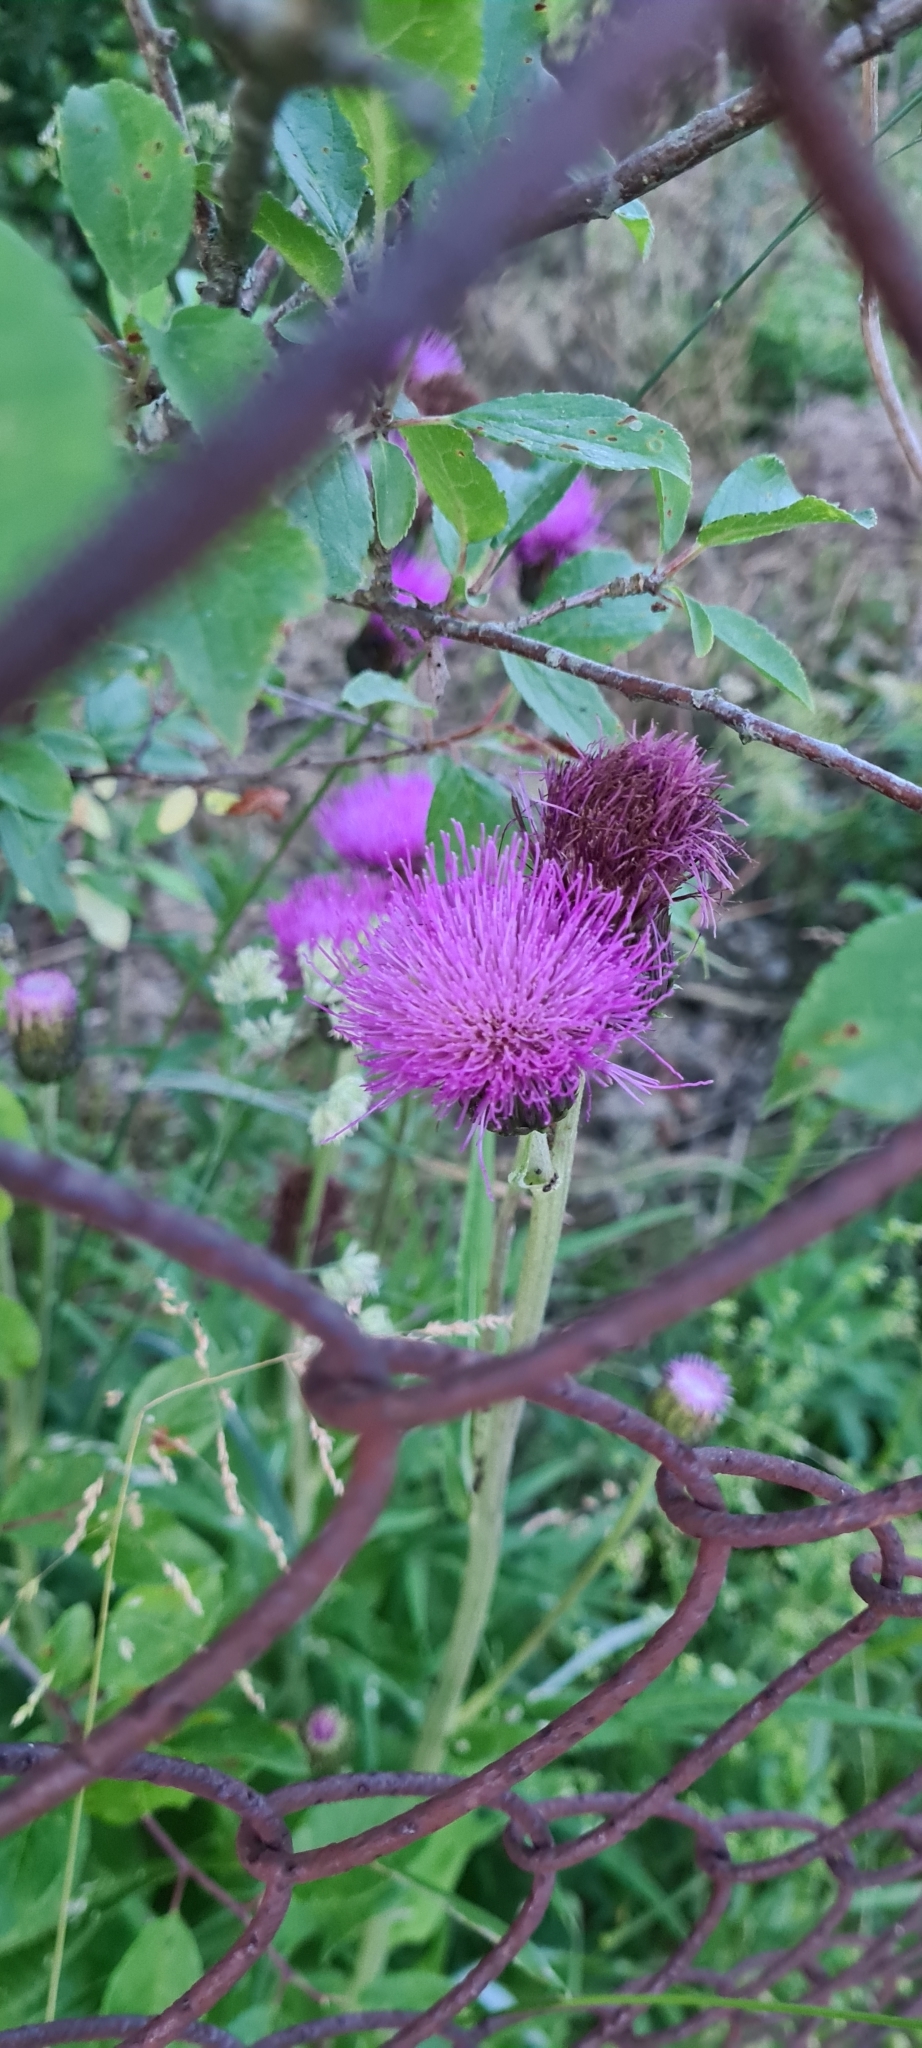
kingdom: Plantae
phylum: Tracheophyta
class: Magnoliopsida
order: Asterales
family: Asteraceae
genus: Cirsium
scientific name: Cirsium heterophyllum
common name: Melancholy thistle
